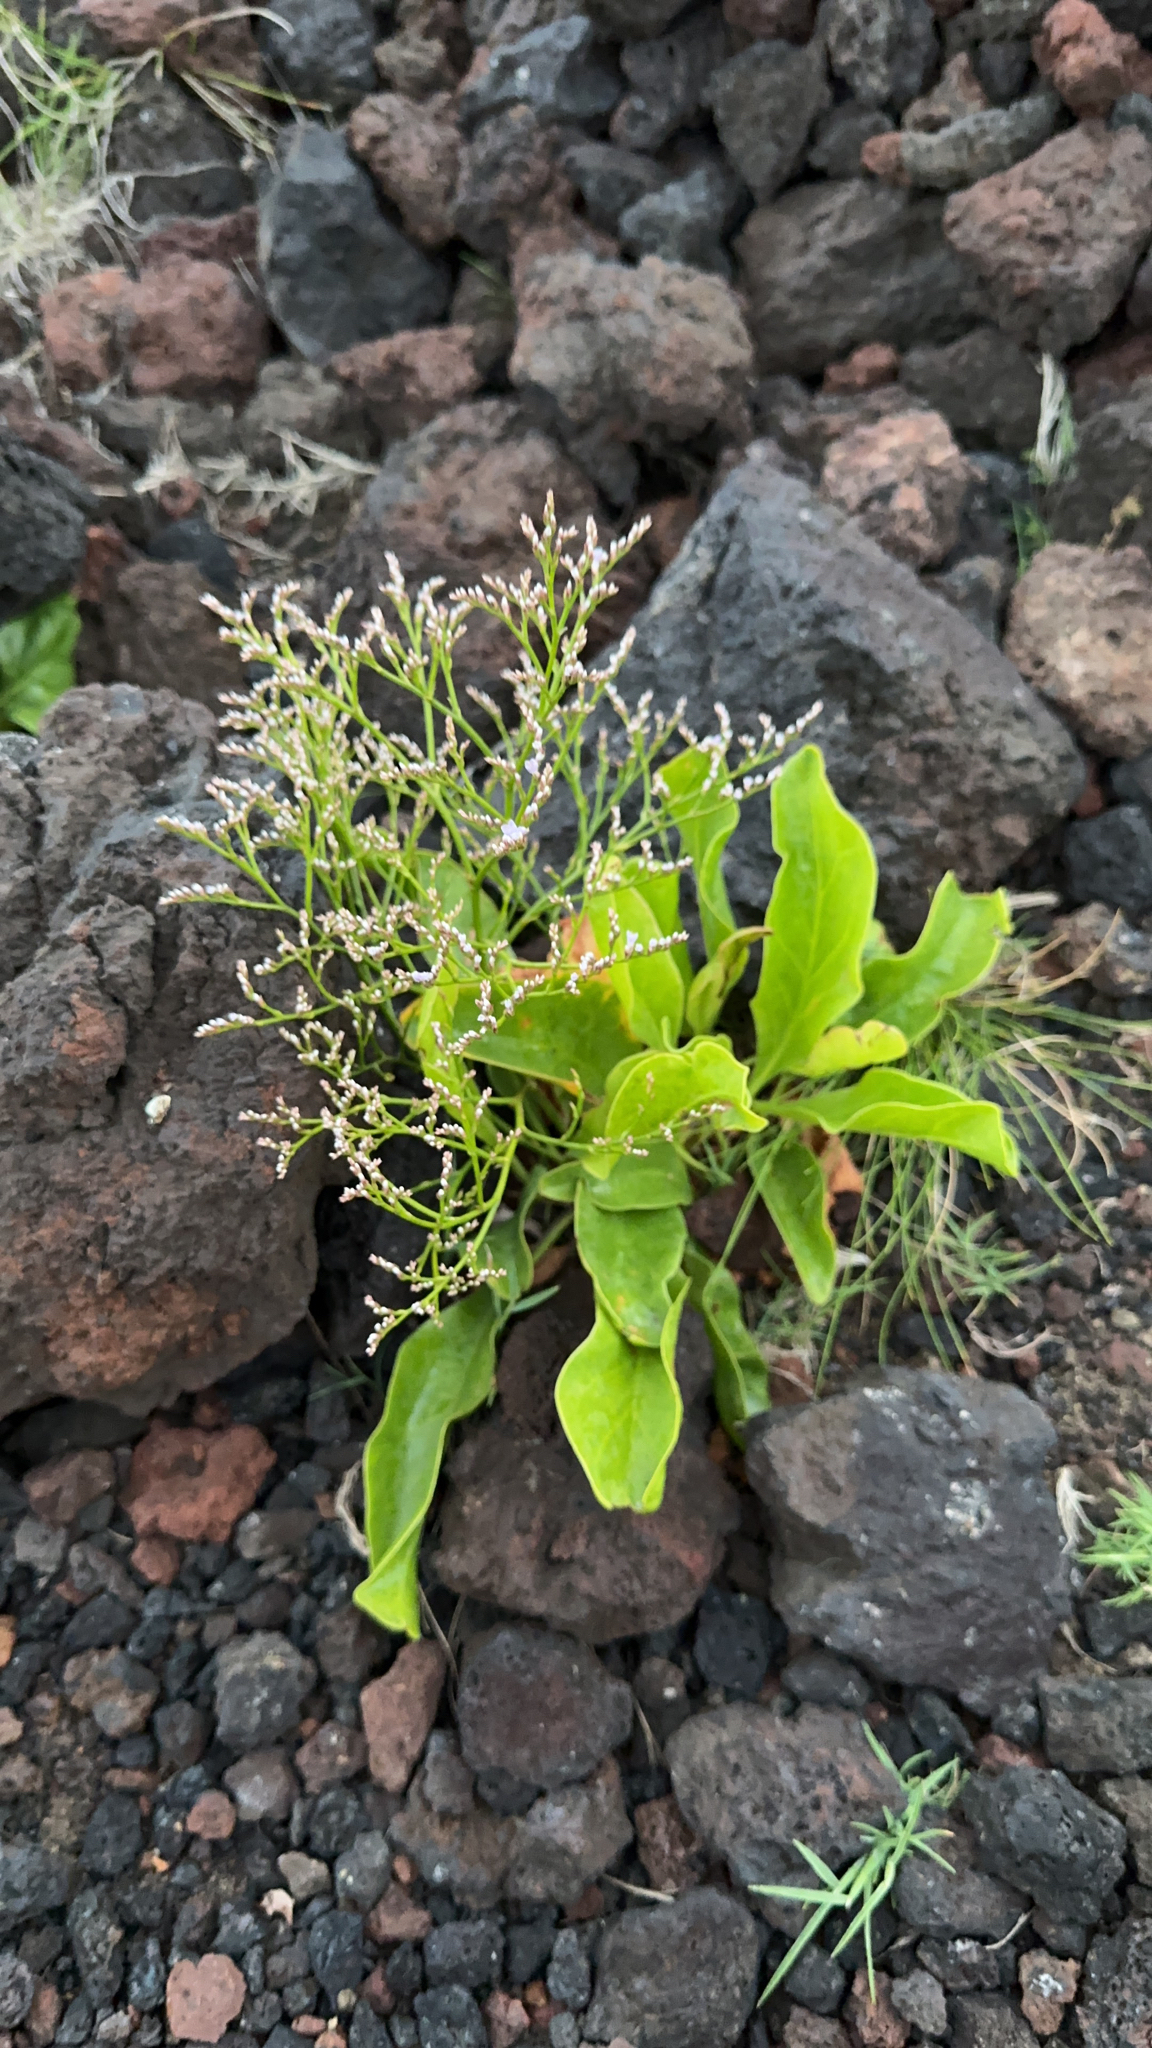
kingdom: Plantae
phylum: Tracheophyta
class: Magnoliopsida
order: Caryophyllales
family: Plumbaginaceae
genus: Limonium
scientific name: Limonium eduardi-diasii
